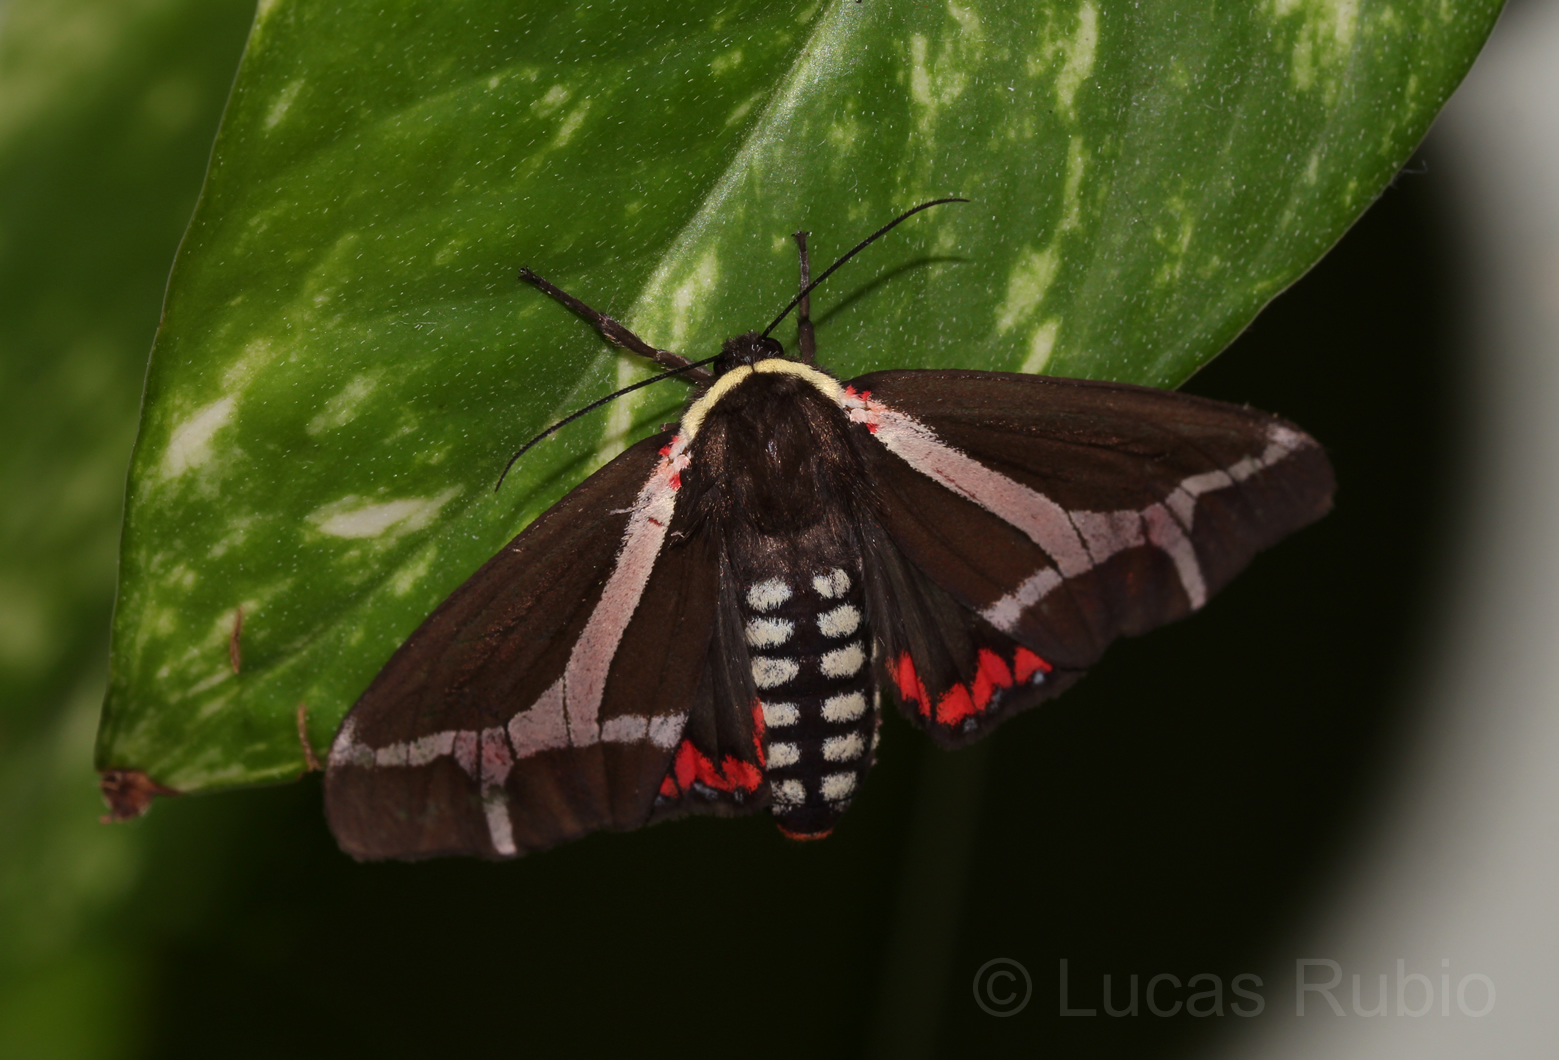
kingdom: Animalia
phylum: Arthropoda
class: Insecta
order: Lepidoptera
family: Erebidae
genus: Dysschema
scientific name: Dysschema sacrifica
